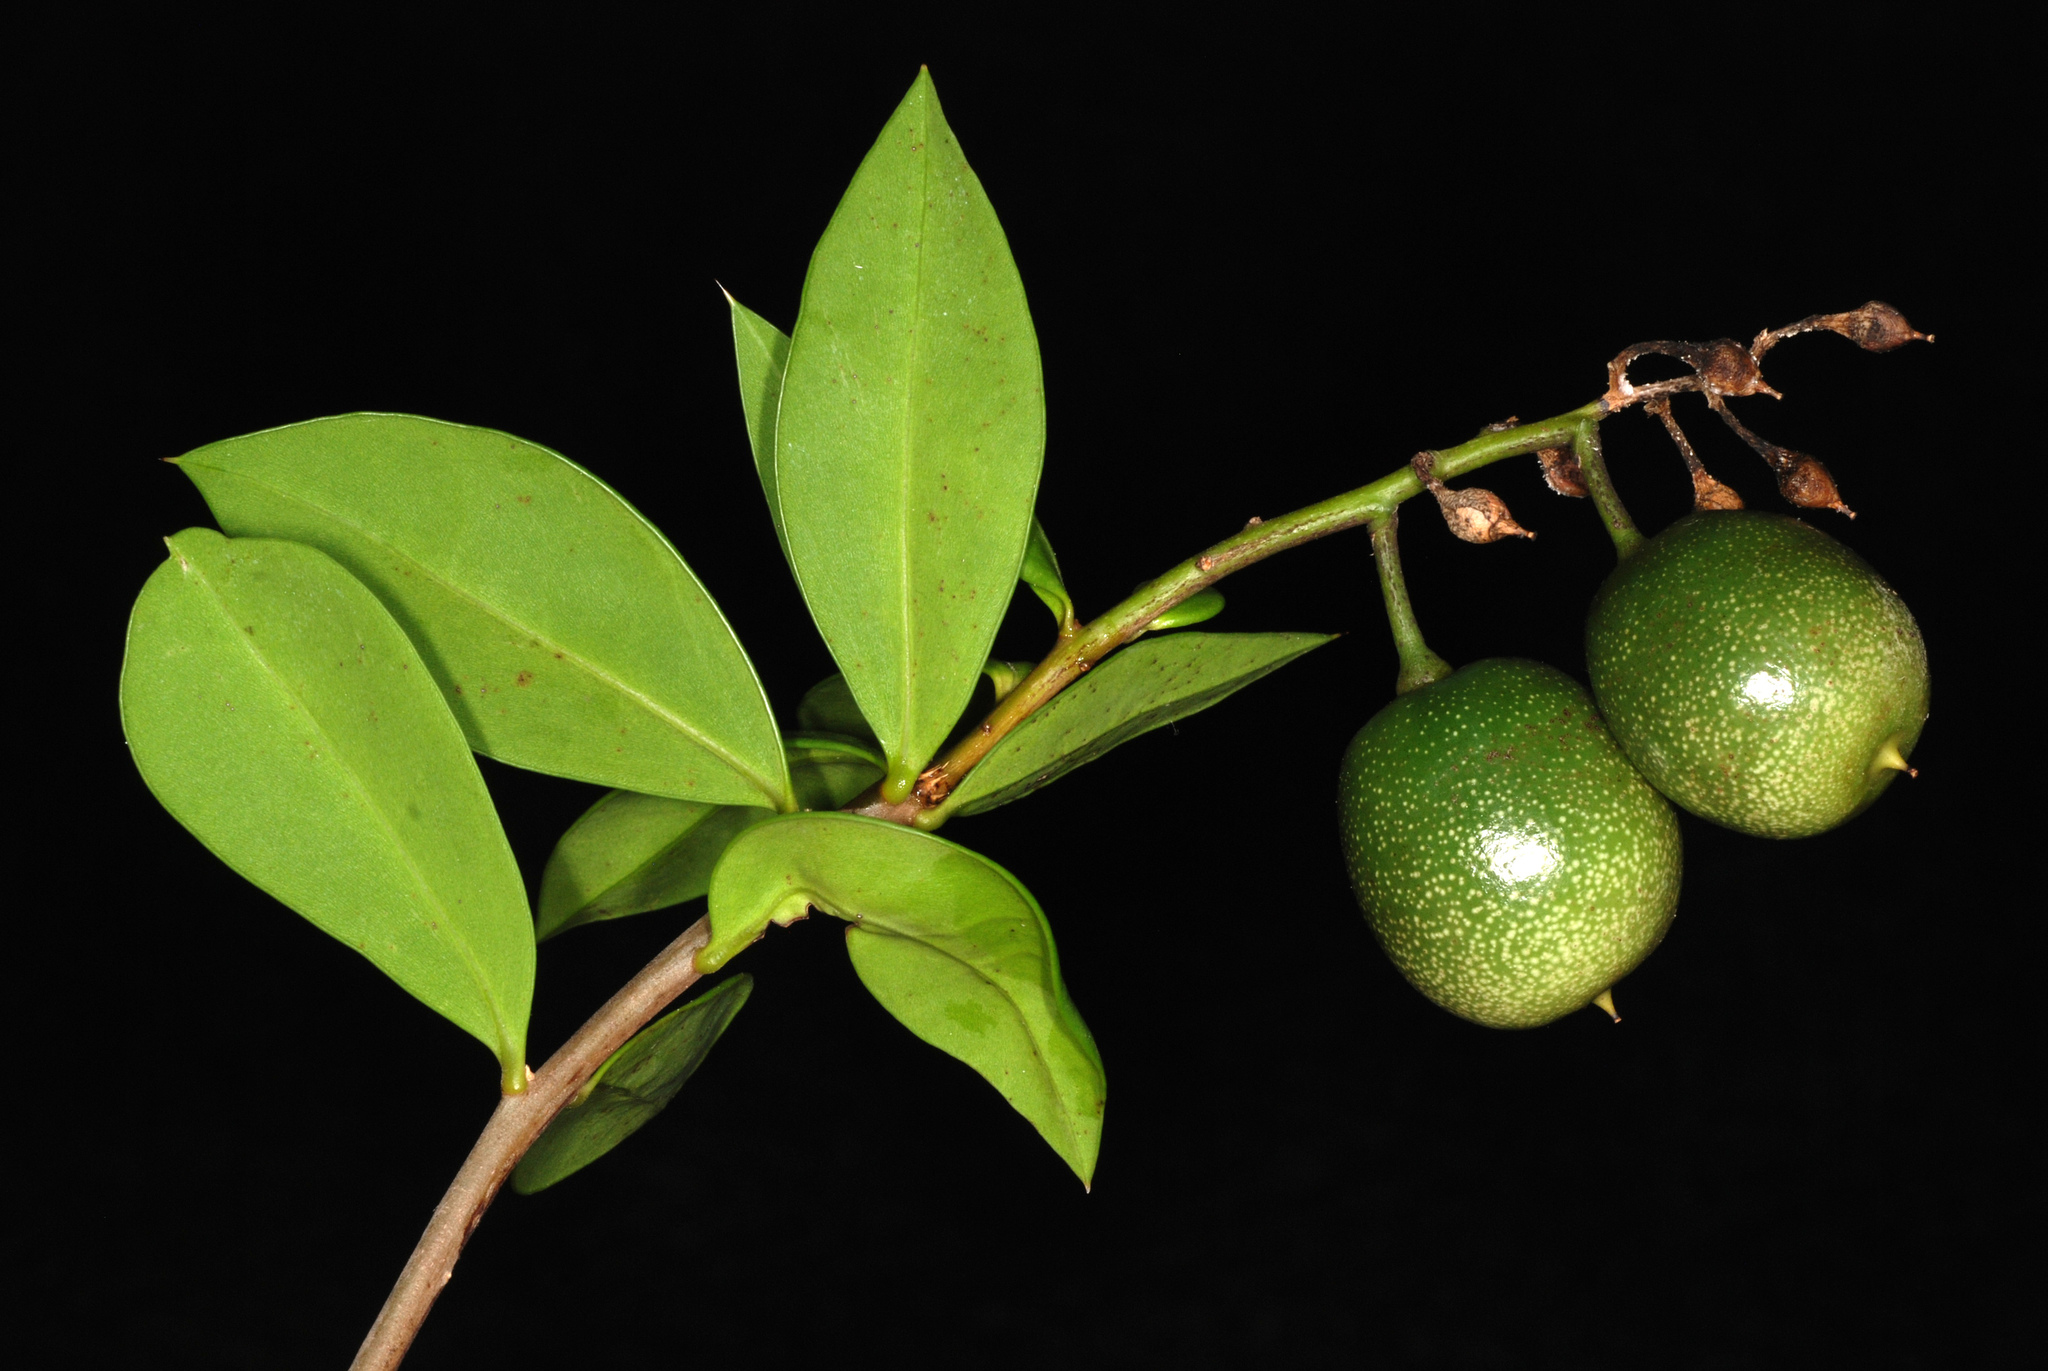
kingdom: Plantae
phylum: Tracheophyta
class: Magnoliopsida
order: Ericales
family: Primulaceae
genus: Bonellia
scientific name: Bonellia macrocarpa
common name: Primrose
